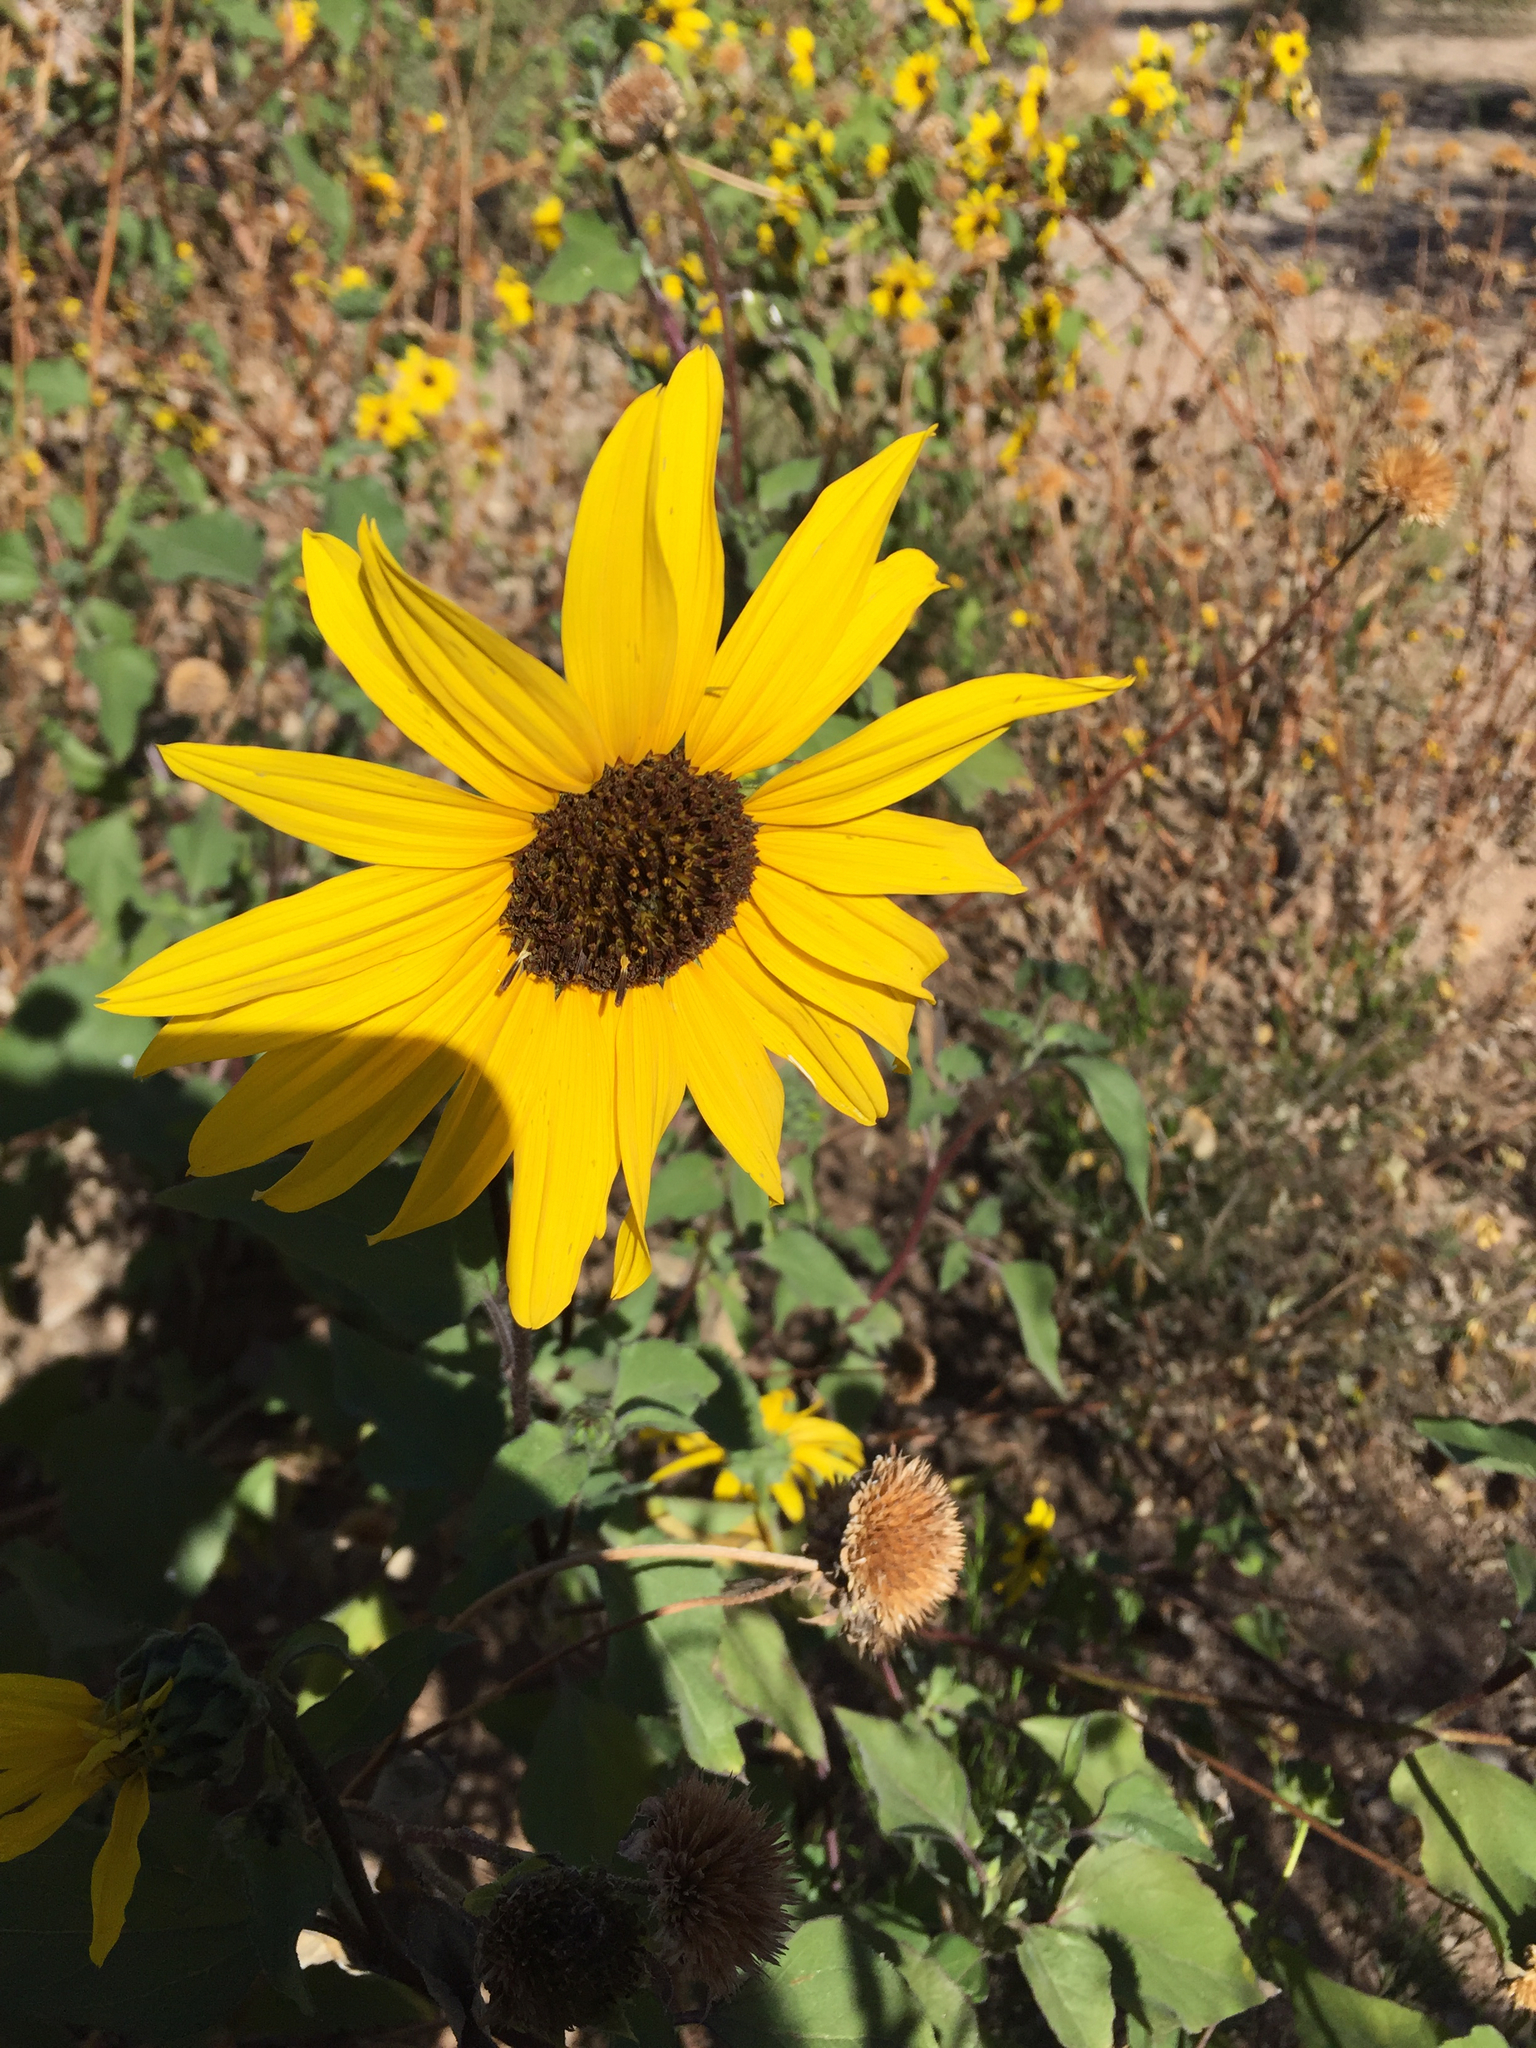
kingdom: Plantae
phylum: Tracheophyta
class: Magnoliopsida
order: Asterales
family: Asteraceae
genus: Helianthus
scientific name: Helianthus annuus
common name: Sunflower
